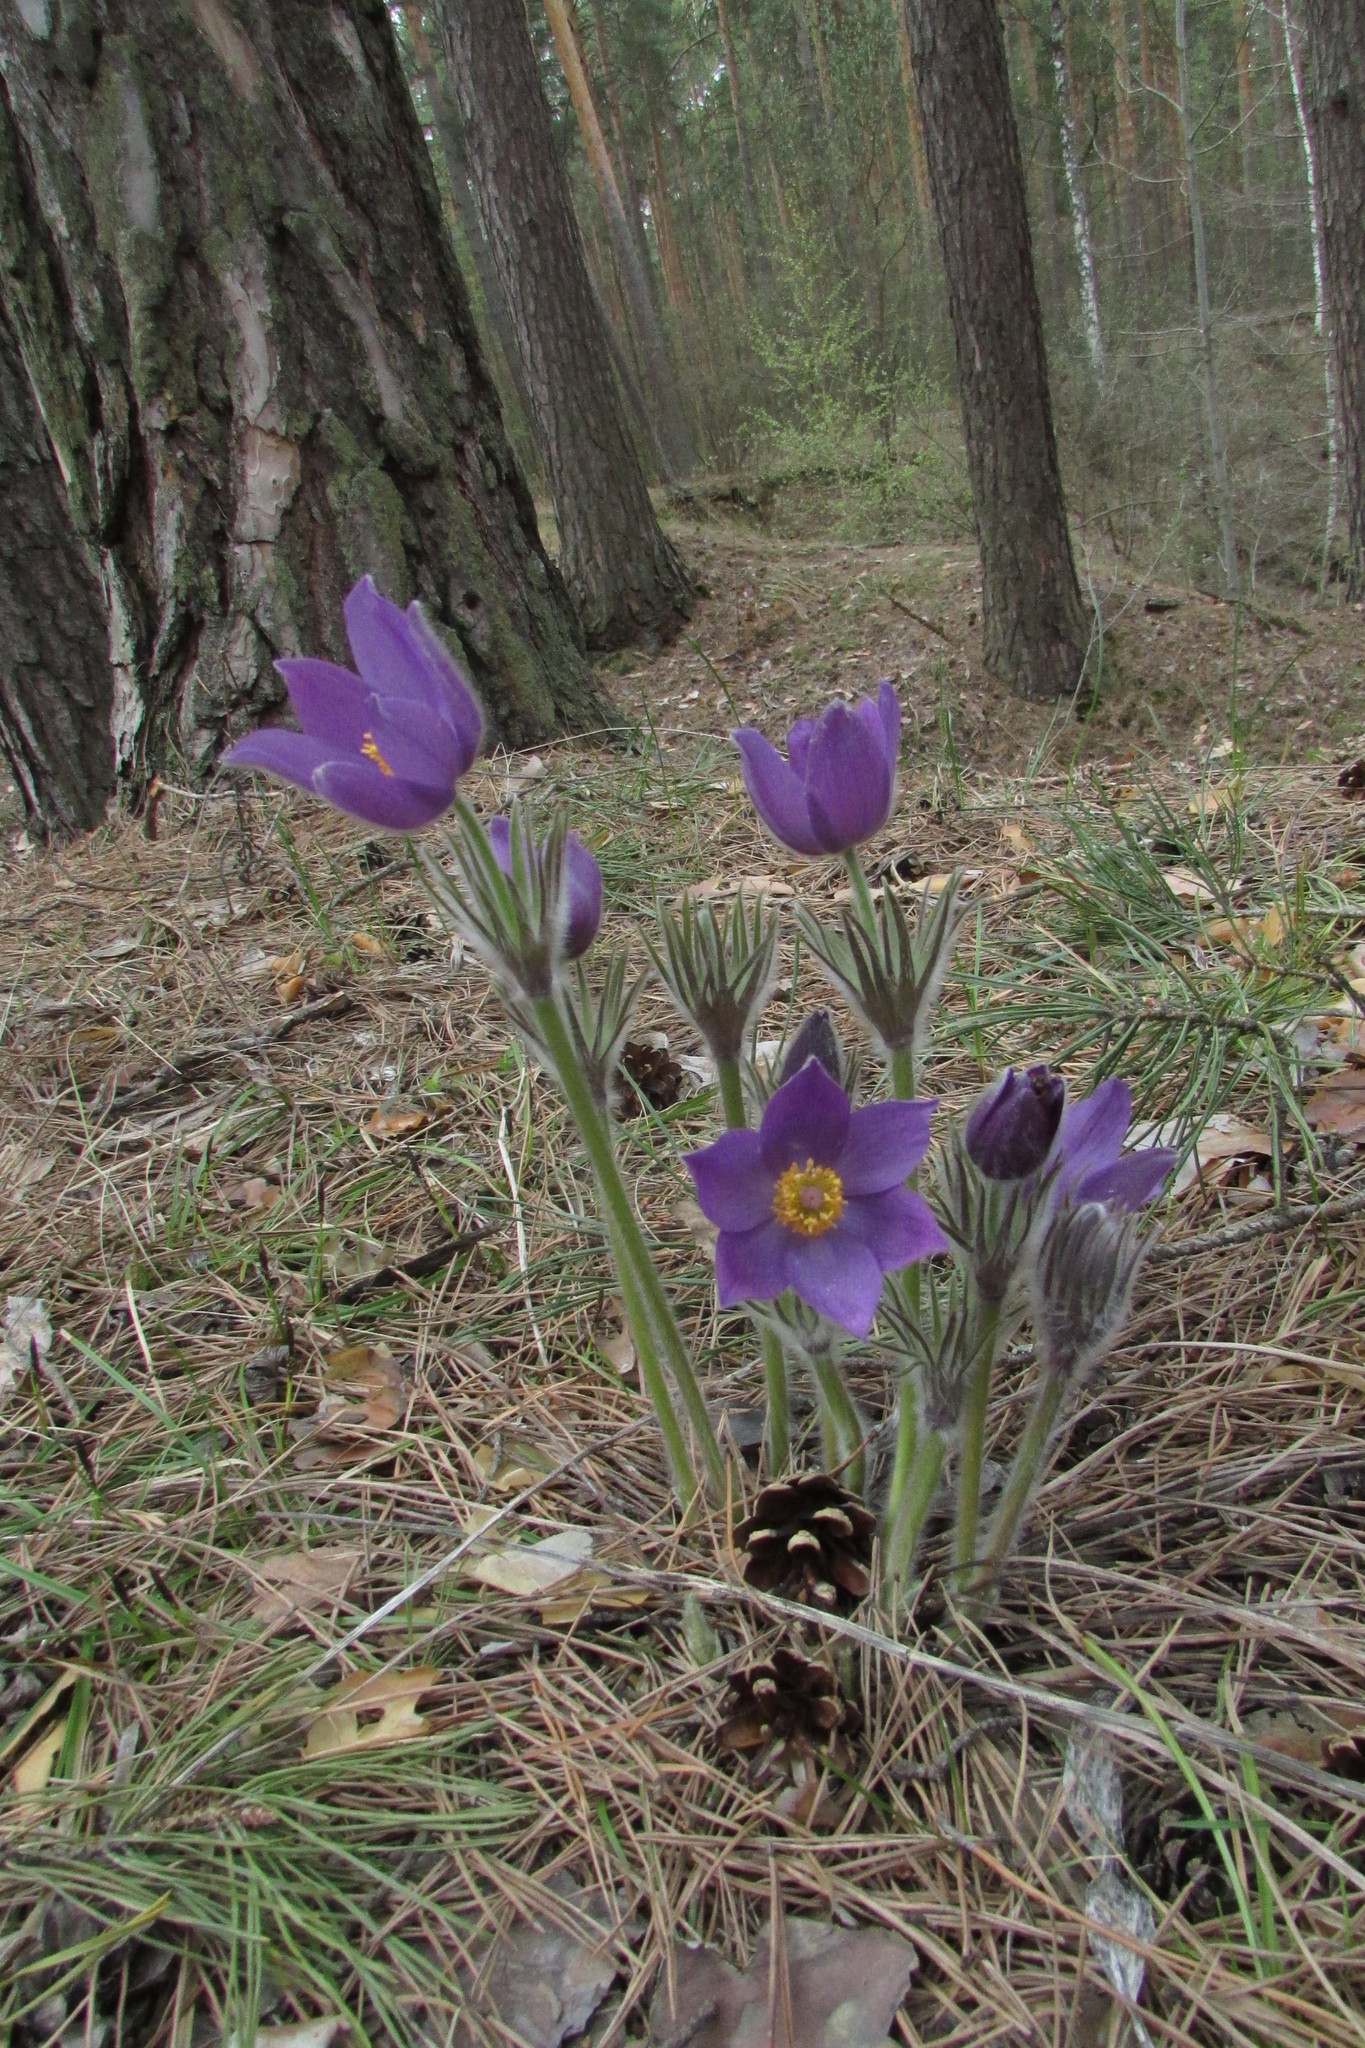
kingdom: Plantae
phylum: Tracheophyta
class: Magnoliopsida
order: Ranunculales
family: Ranunculaceae
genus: Pulsatilla
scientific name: Pulsatilla patens
